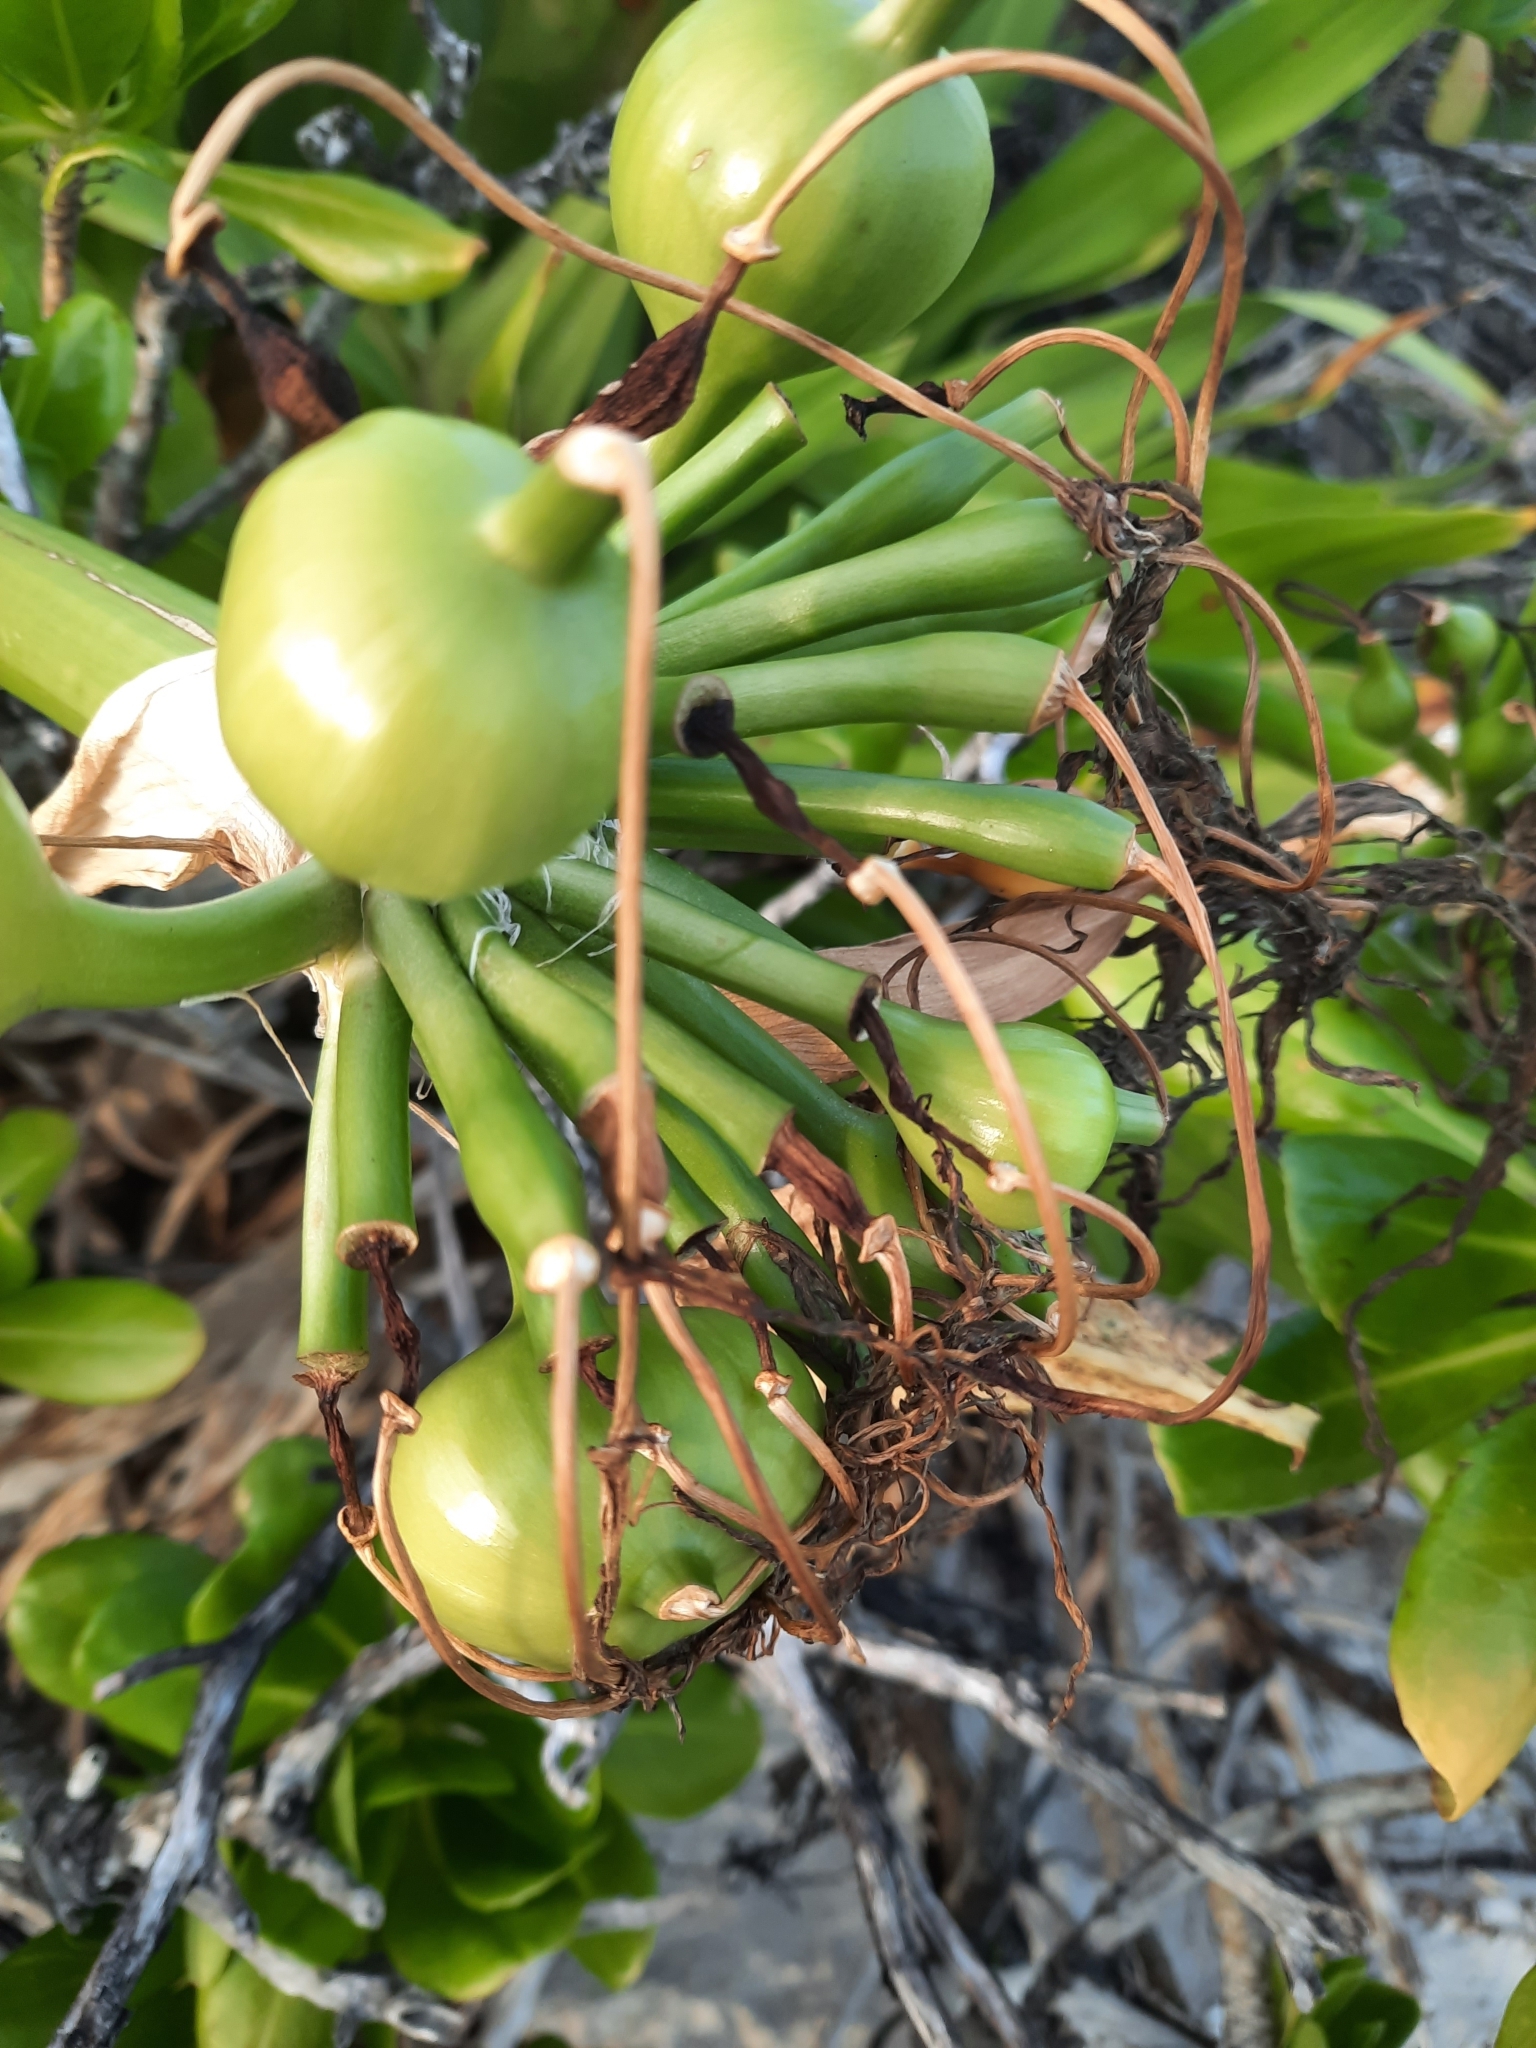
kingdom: Plantae
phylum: Tracheophyta
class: Liliopsida
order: Asparagales
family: Amaryllidaceae
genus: Crinum
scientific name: Crinum asiaticum
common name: Poisonbulb
